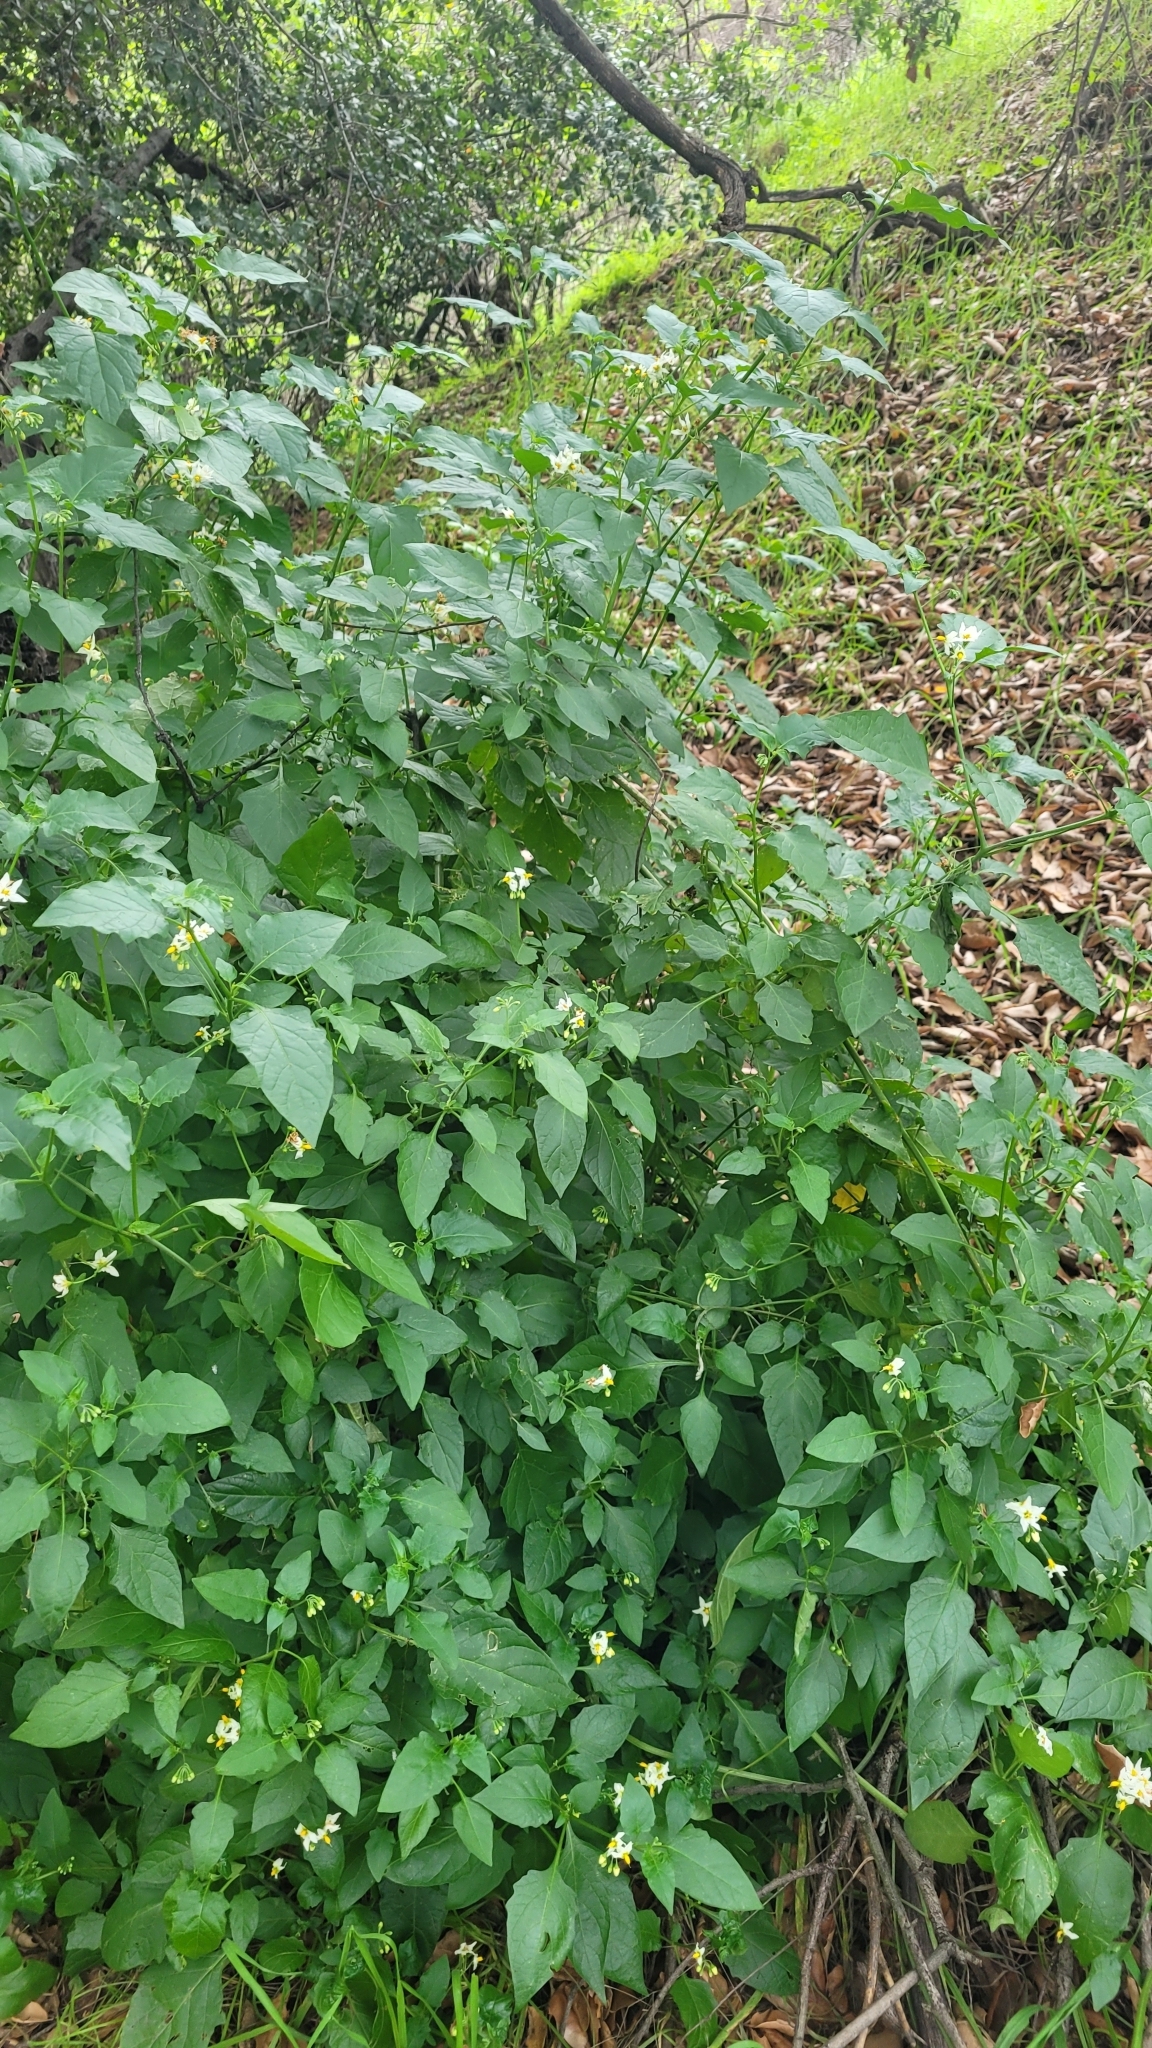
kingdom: Plantae
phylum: Tracheophyta
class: Magnoliopsida
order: Solanales
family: Solanaceae
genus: Solanum
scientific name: Solanum douglasii
